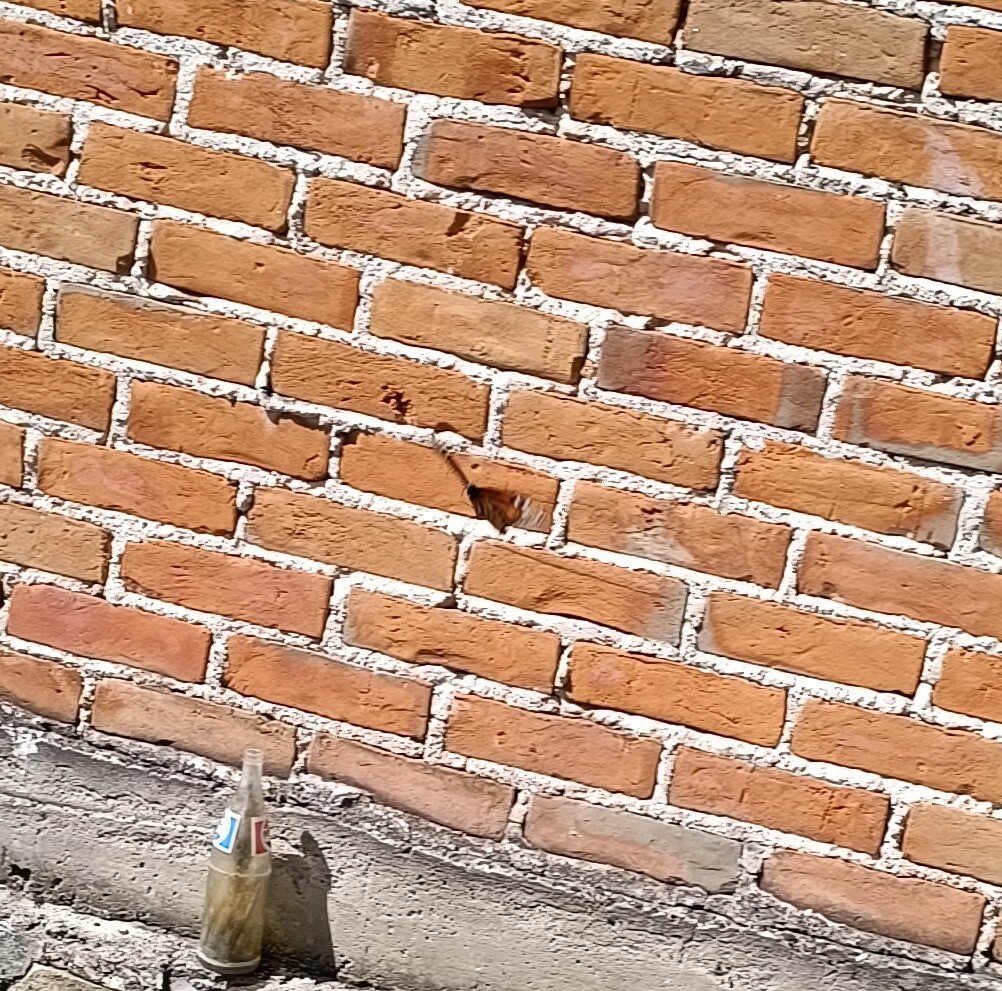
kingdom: Animalia
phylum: Arthropoda
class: Insecta
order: Lepidoptera
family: Nymphalidae
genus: Danaus
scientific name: Danaus plexippus
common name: Monarch
